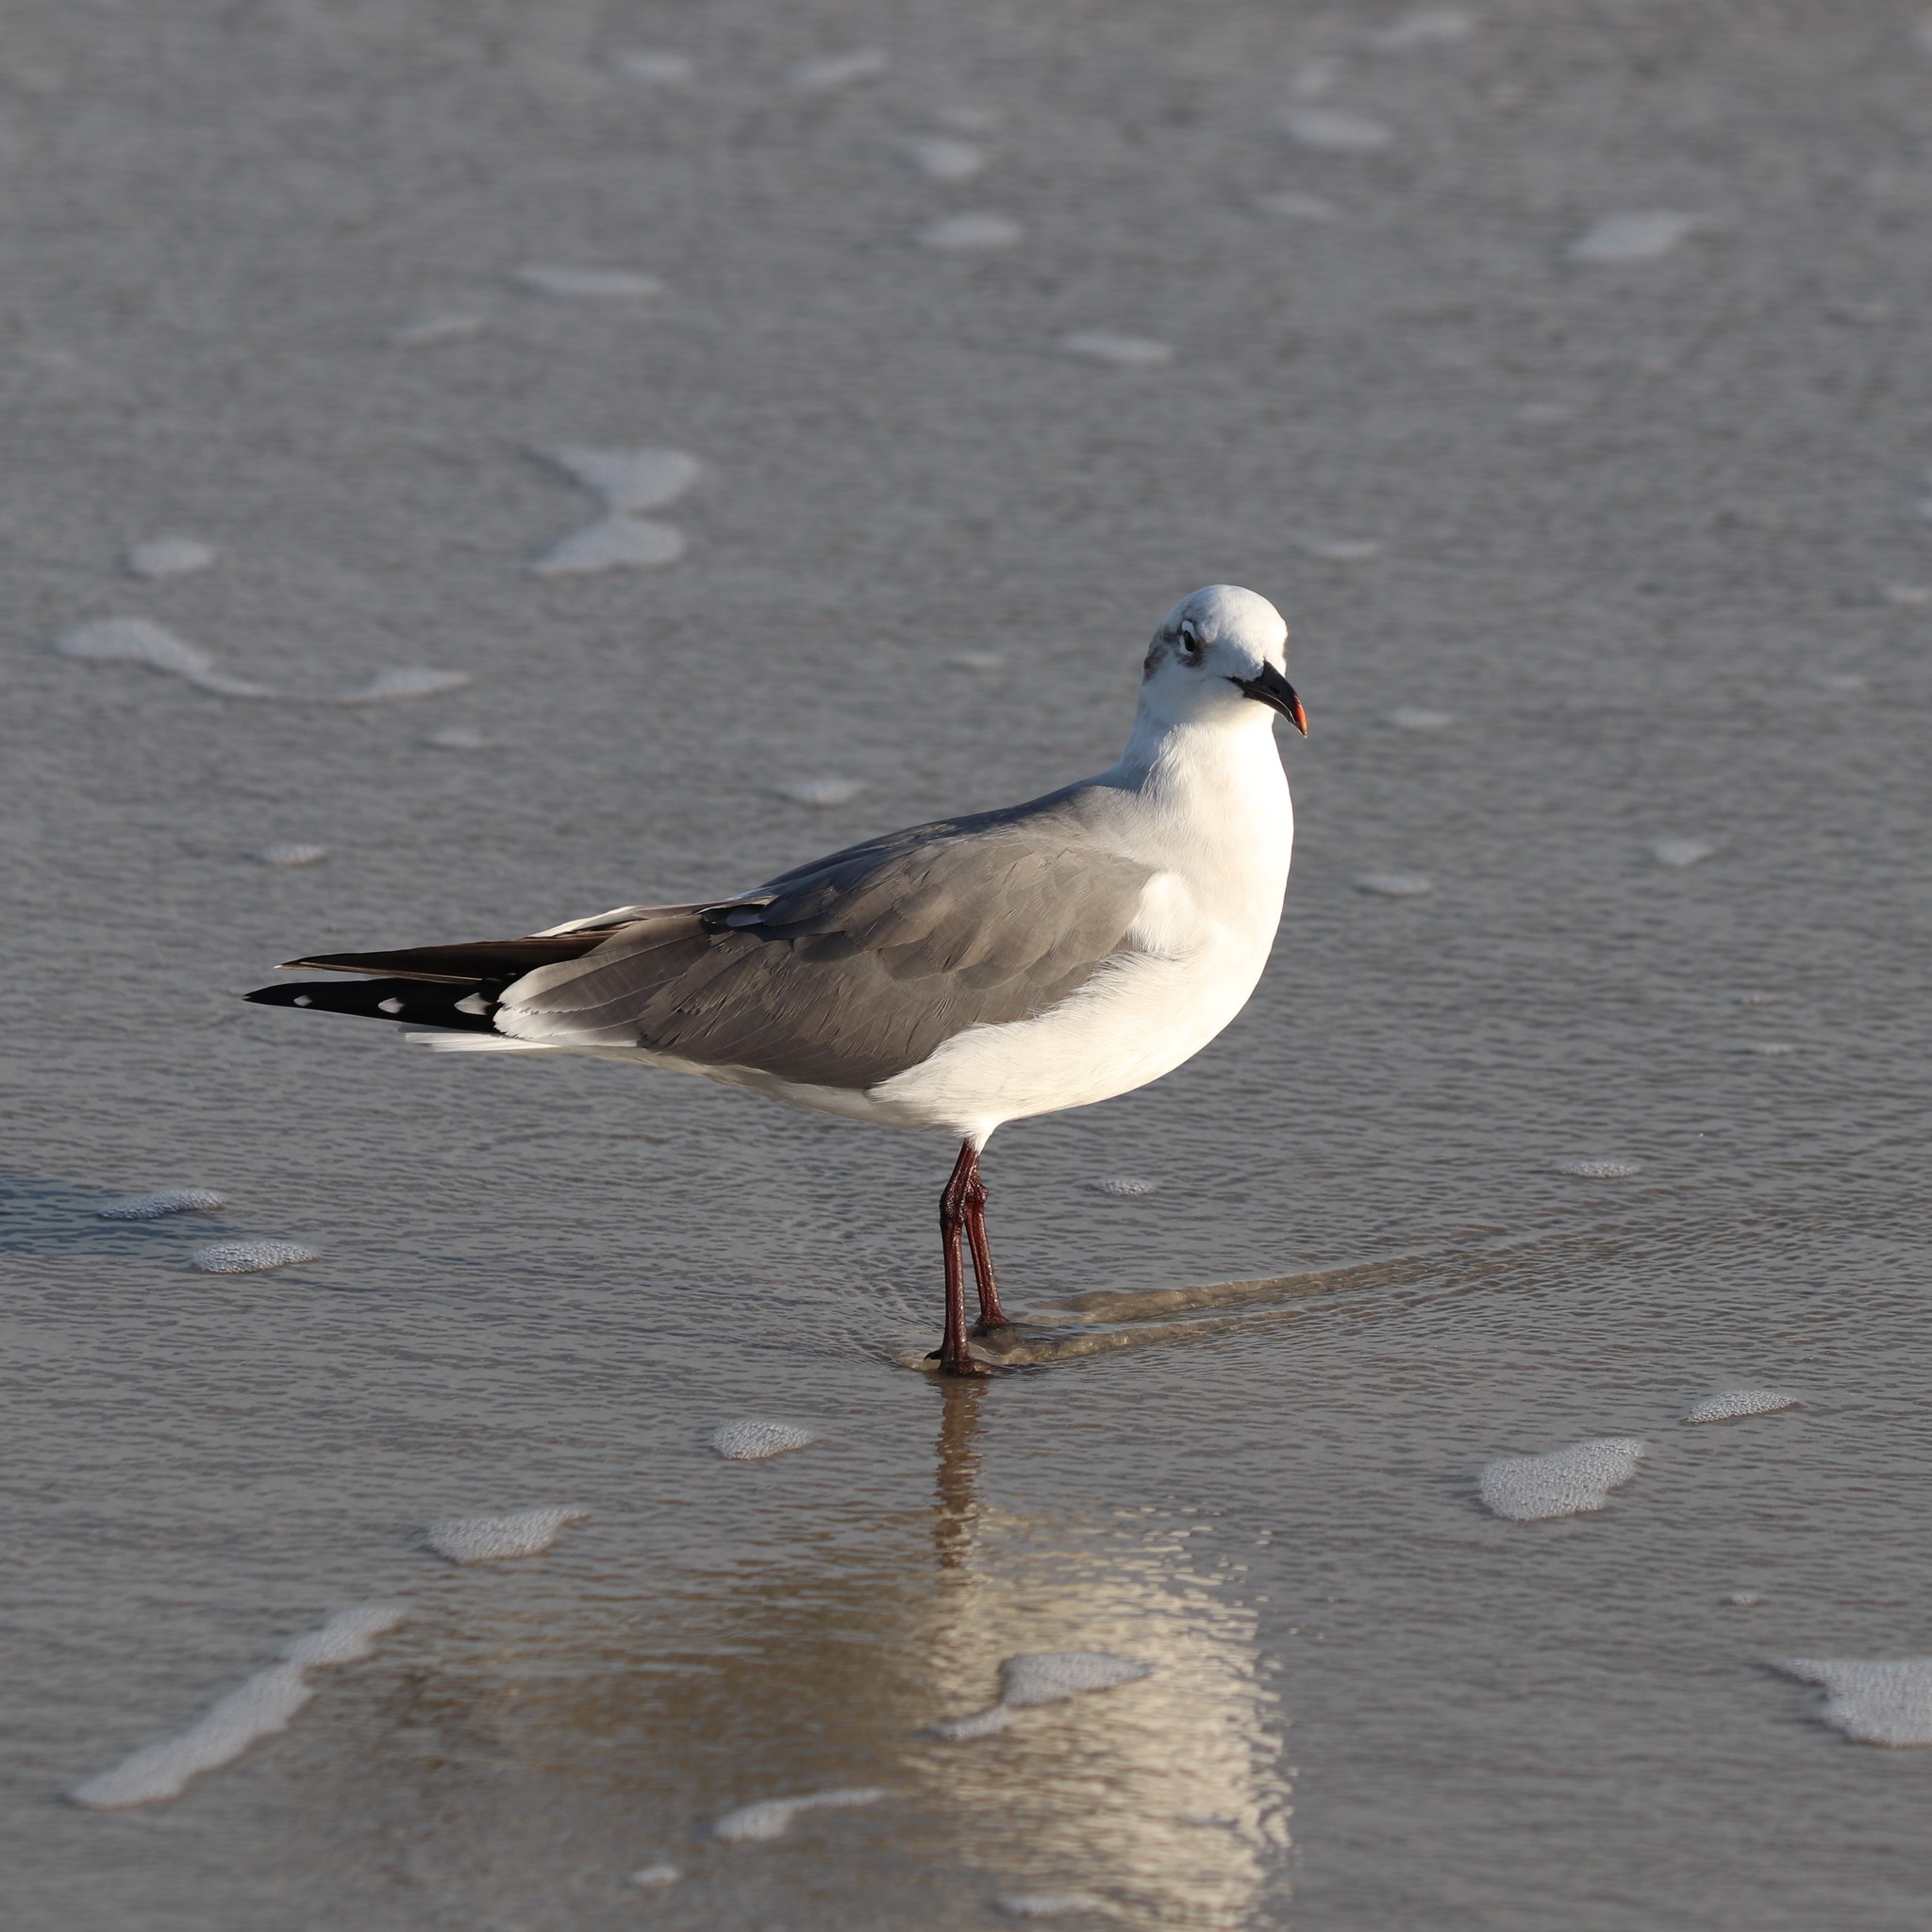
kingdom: Animalia
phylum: Chordata
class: Aves
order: Charadriiformes
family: Laridae
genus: Leucophaeus
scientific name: Leucophaeus atricilla
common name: Laughing gull
